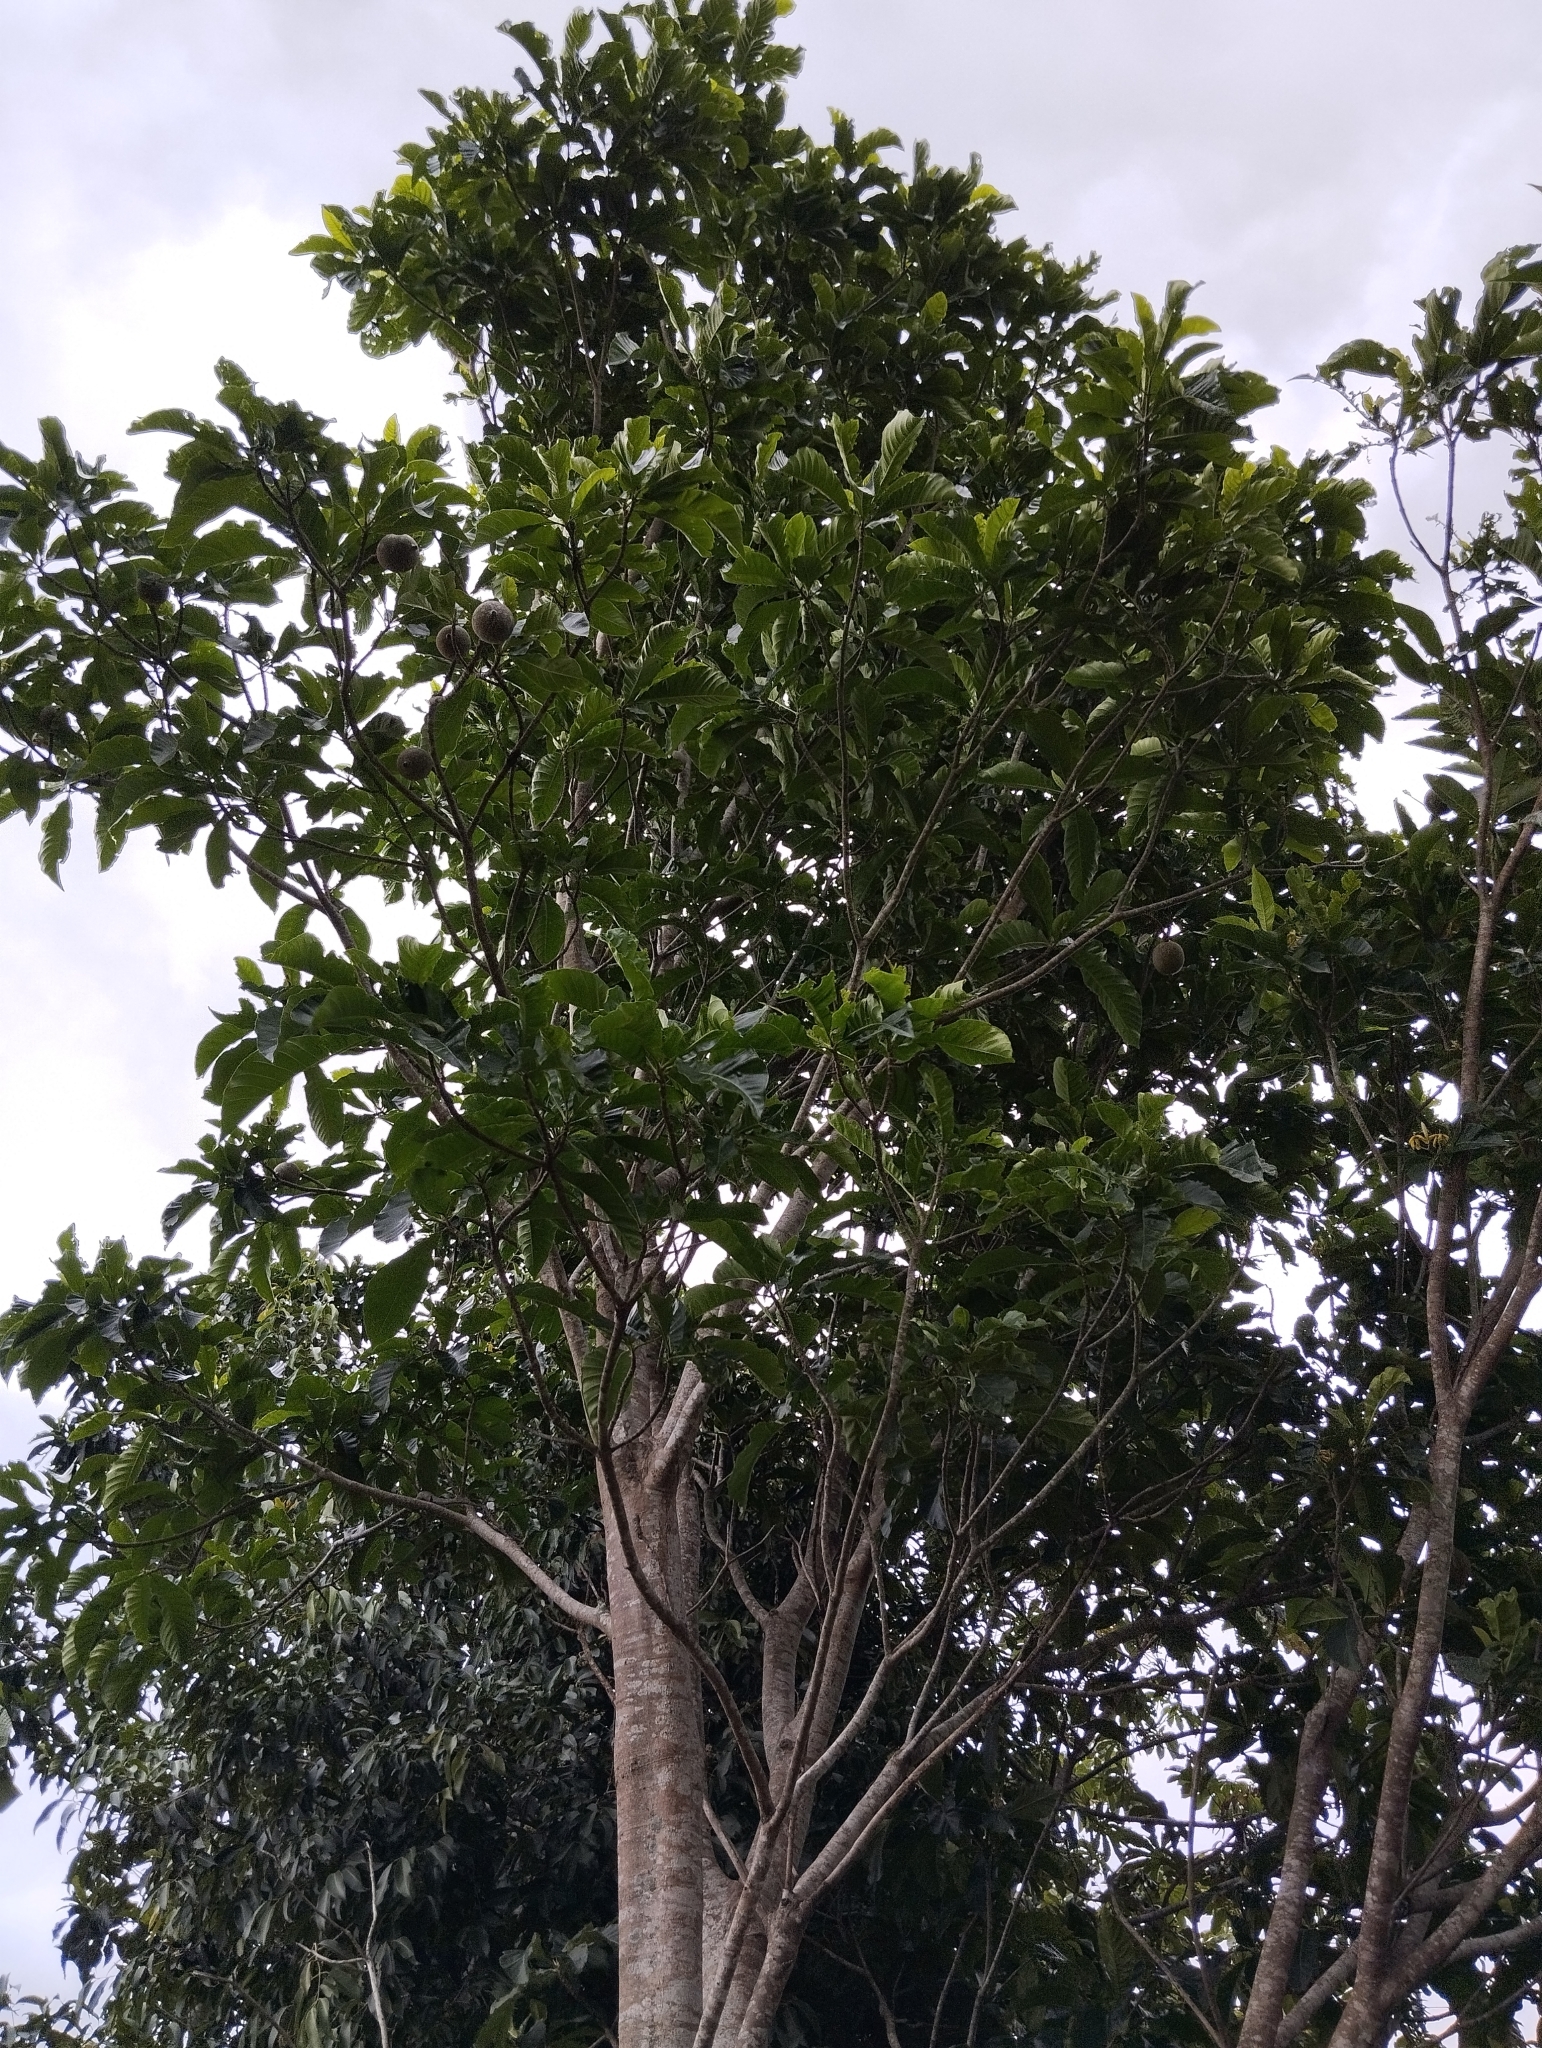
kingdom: Plantae
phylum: Tracheophyta
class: Magnoliopsida
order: Gentianales
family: Rubiaceae
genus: Genipa
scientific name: Genipa americana
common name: Genipap
